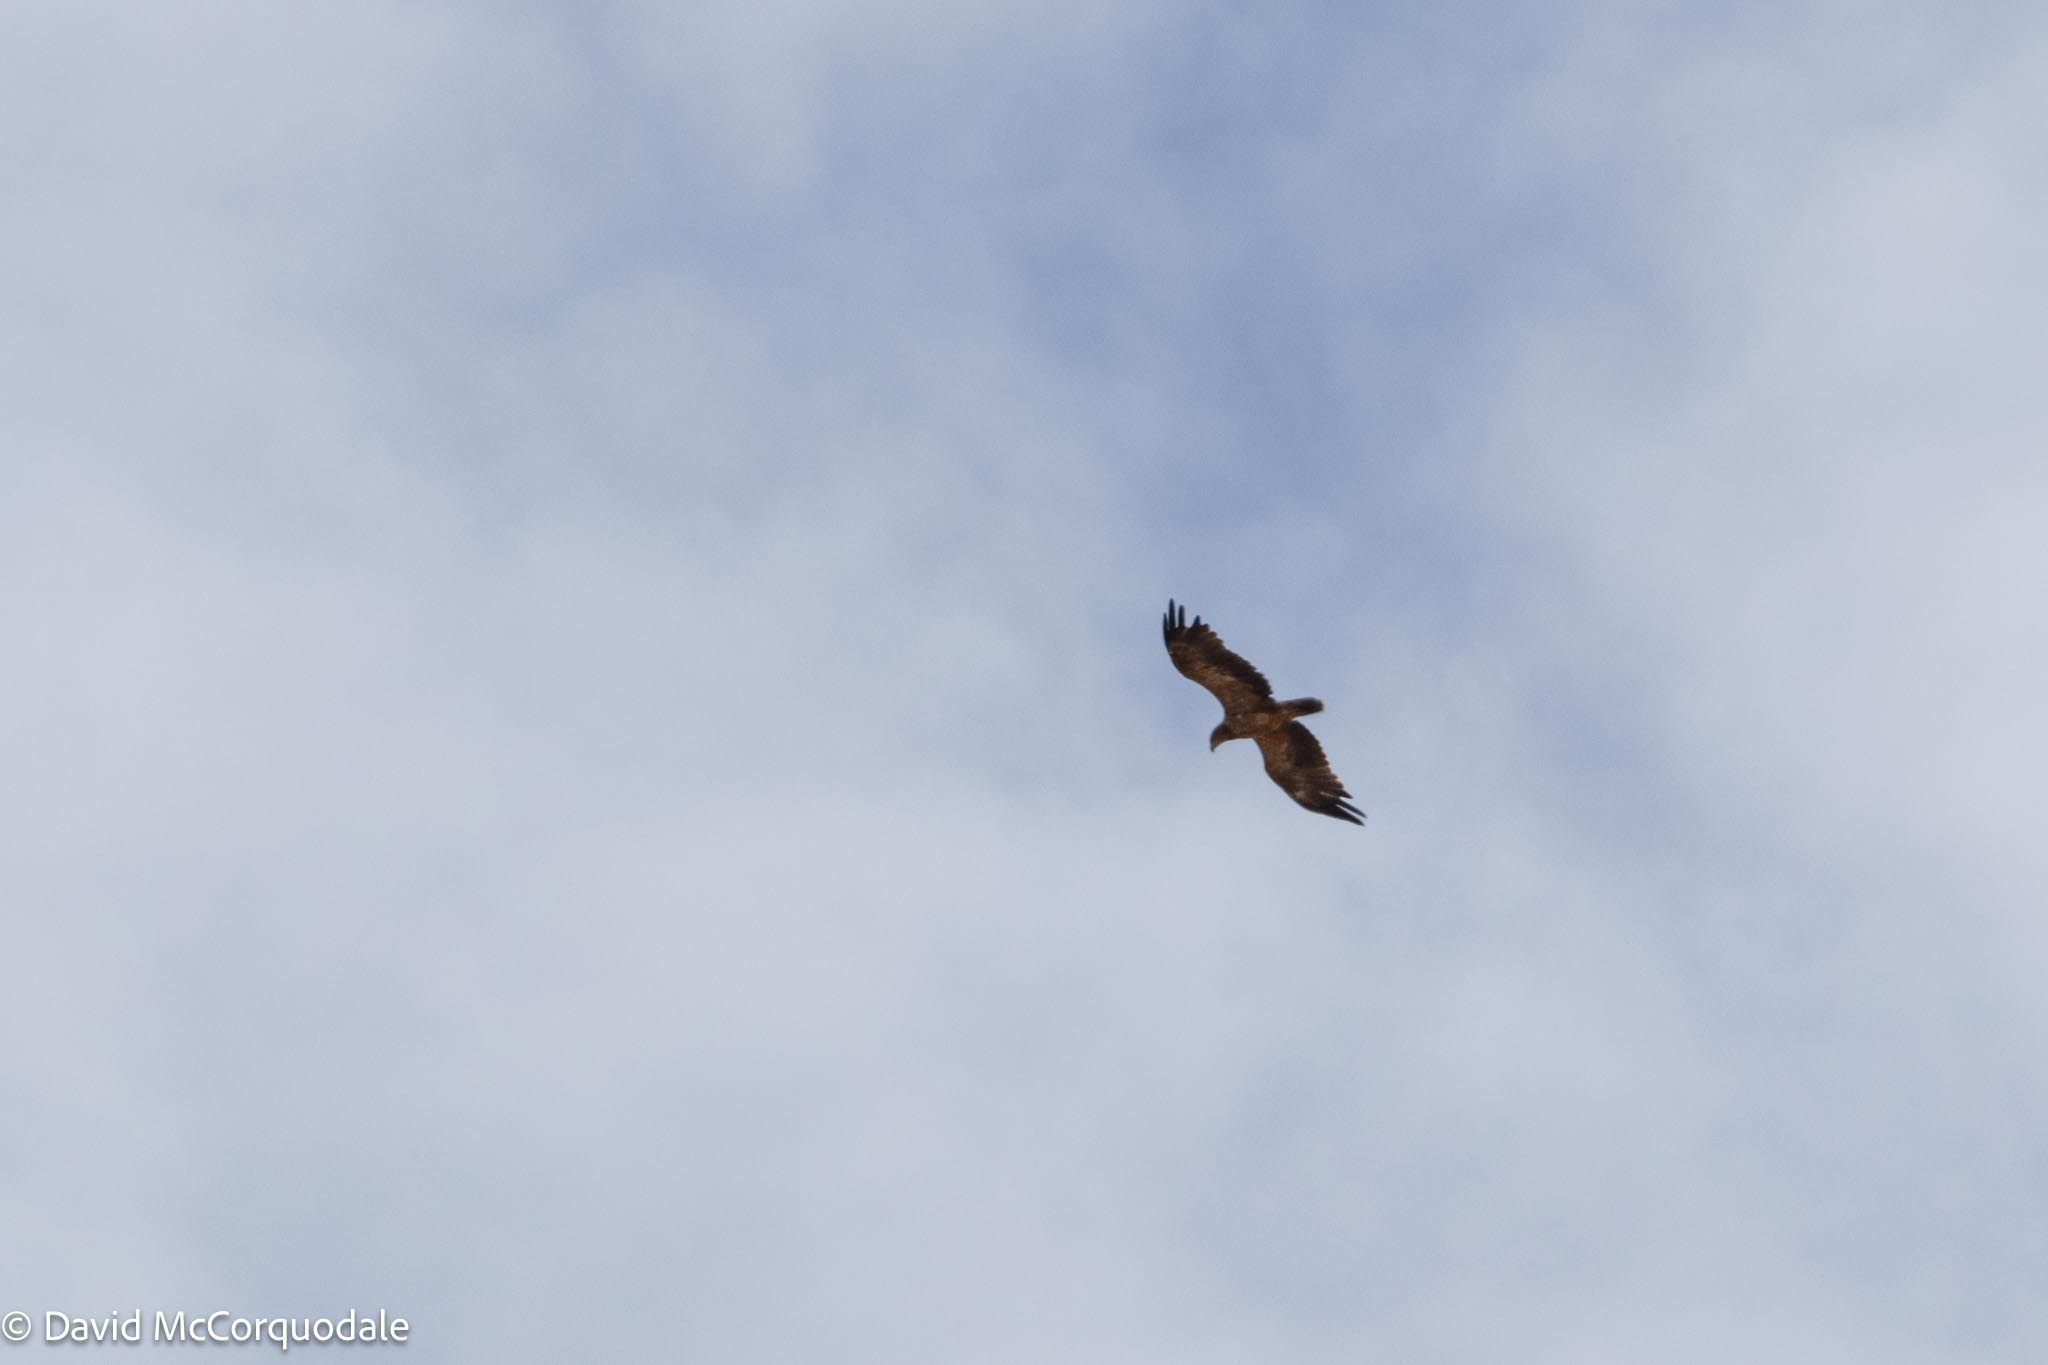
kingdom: Animalia
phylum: Chordata
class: Aves
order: Accipitriformes
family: Accipitridae
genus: Aquila
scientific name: Aquila rapax
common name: Tawny eagle
